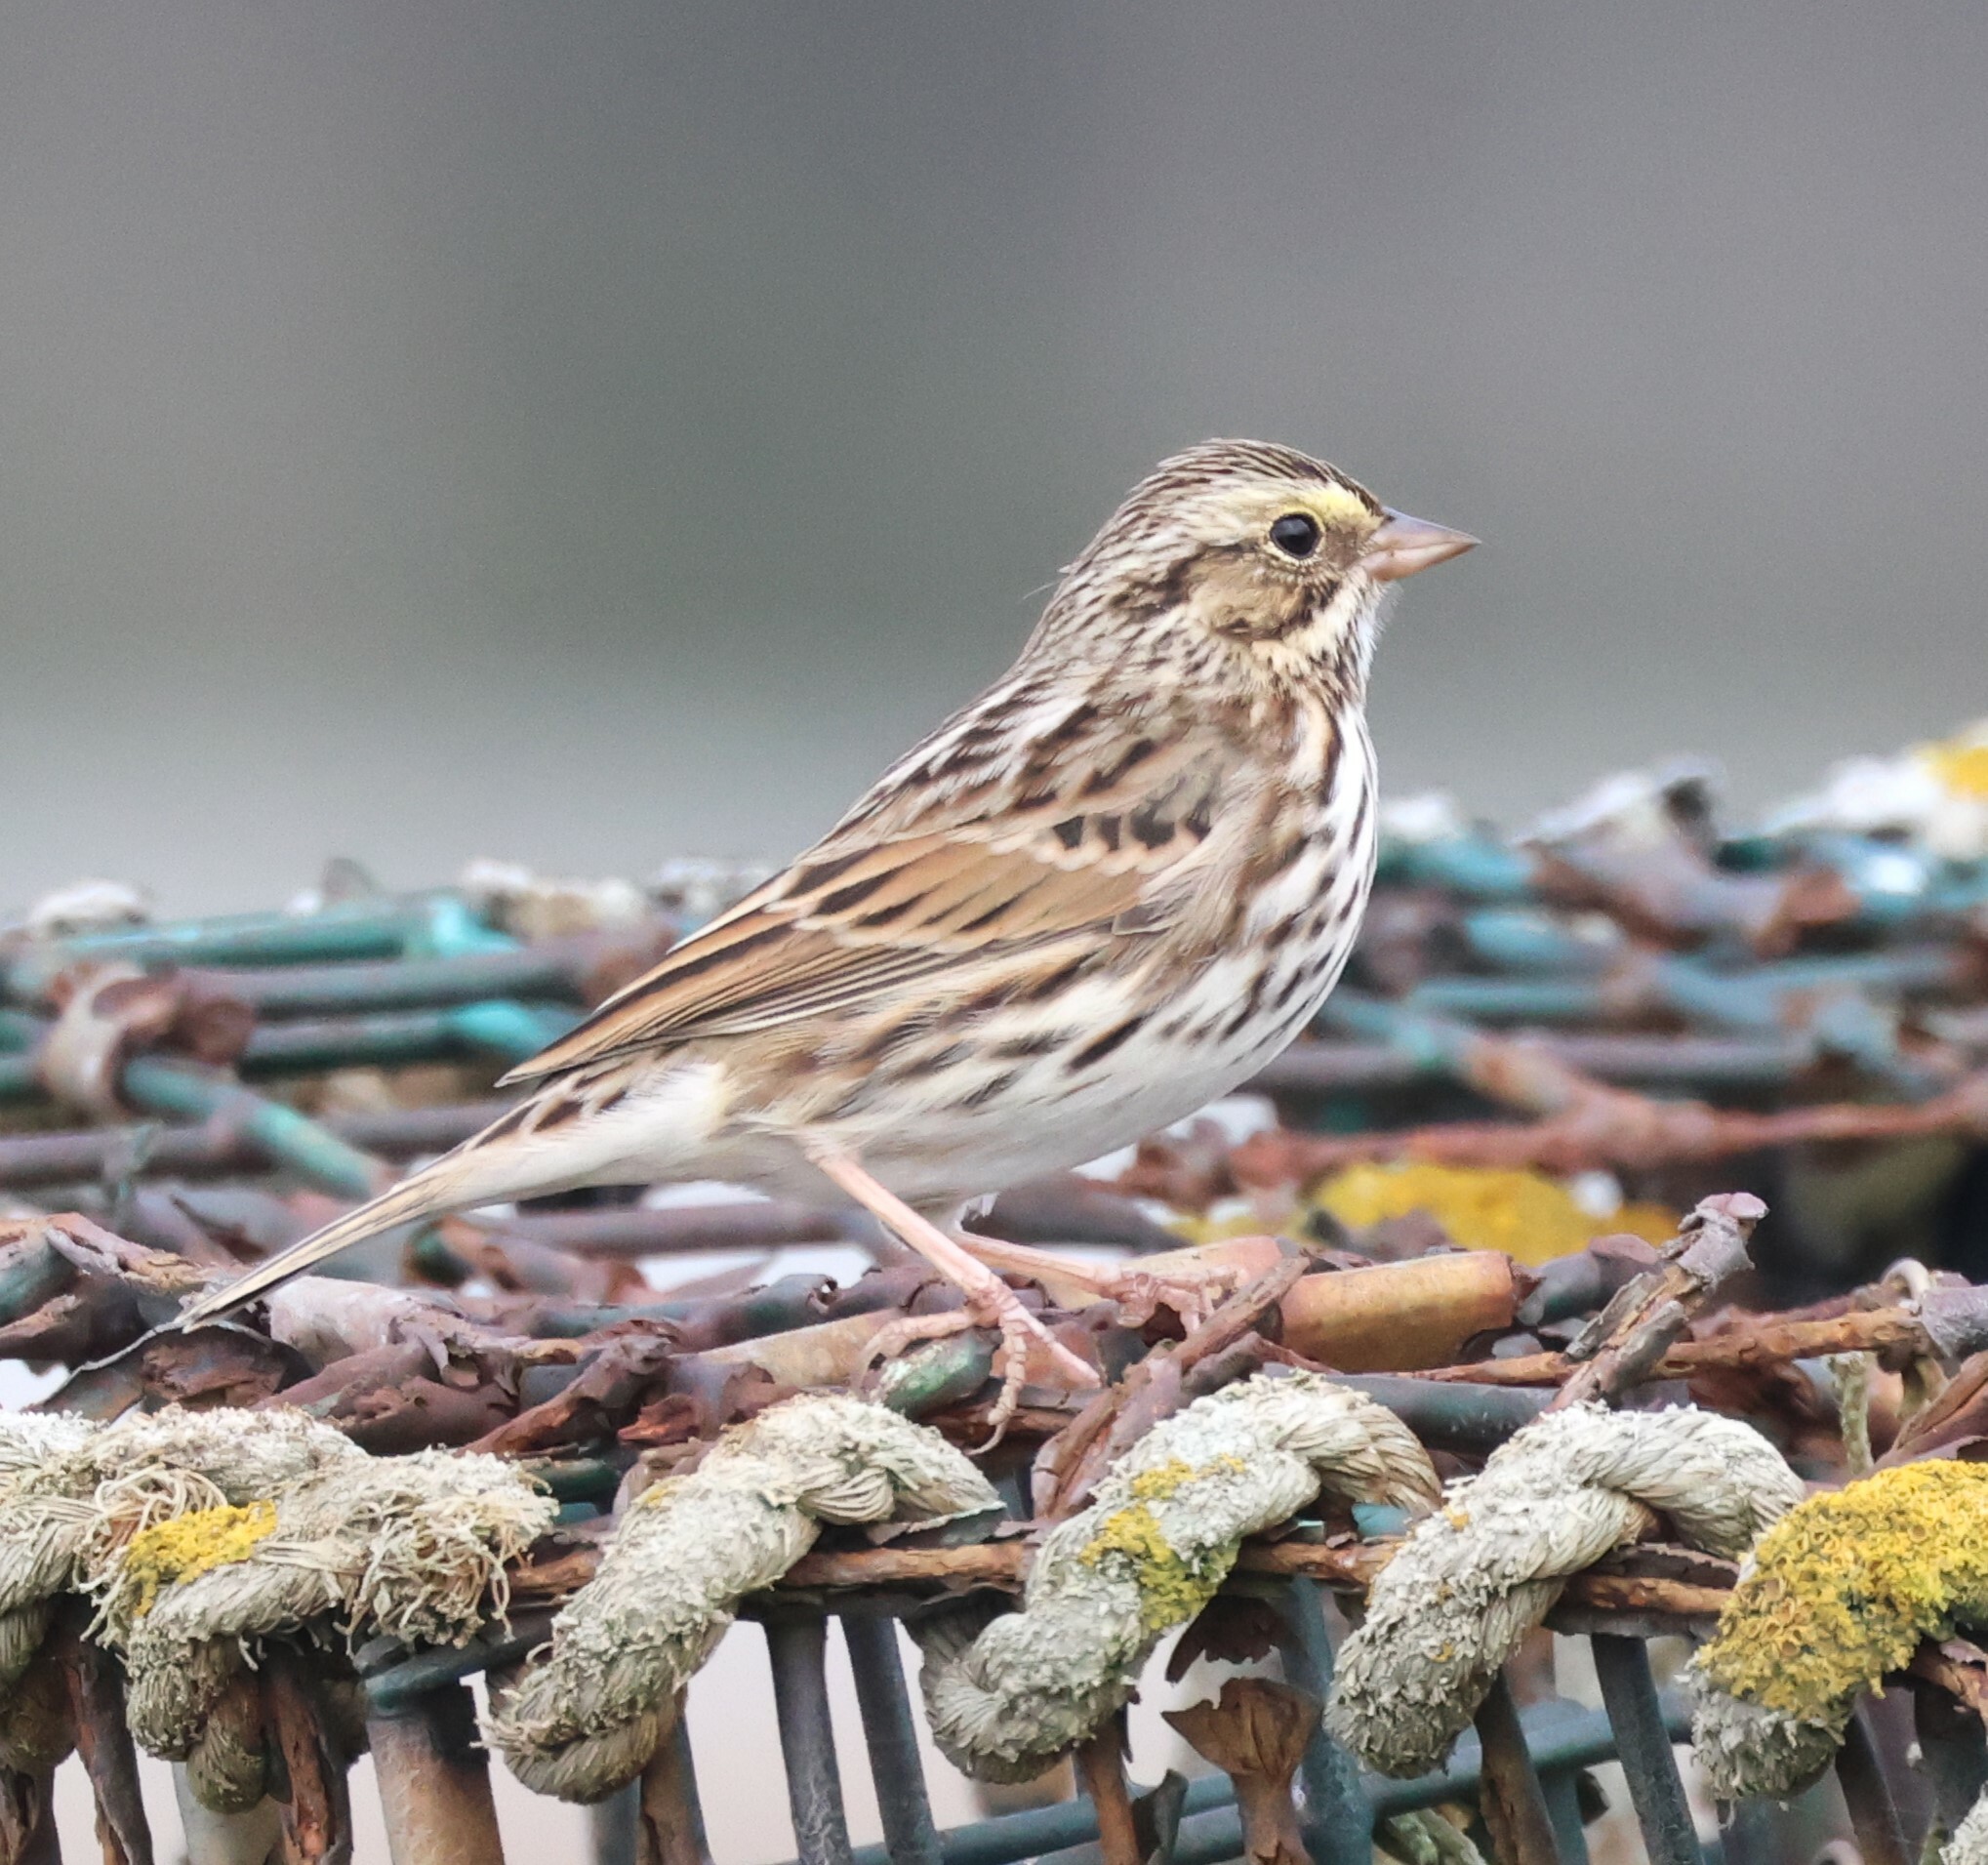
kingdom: Animalia
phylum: Chordata
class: Aves
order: Passeriformes
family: Passerellidae
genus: Passerculus
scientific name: Passerculus sandwichensis
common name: Savannah sparrow
